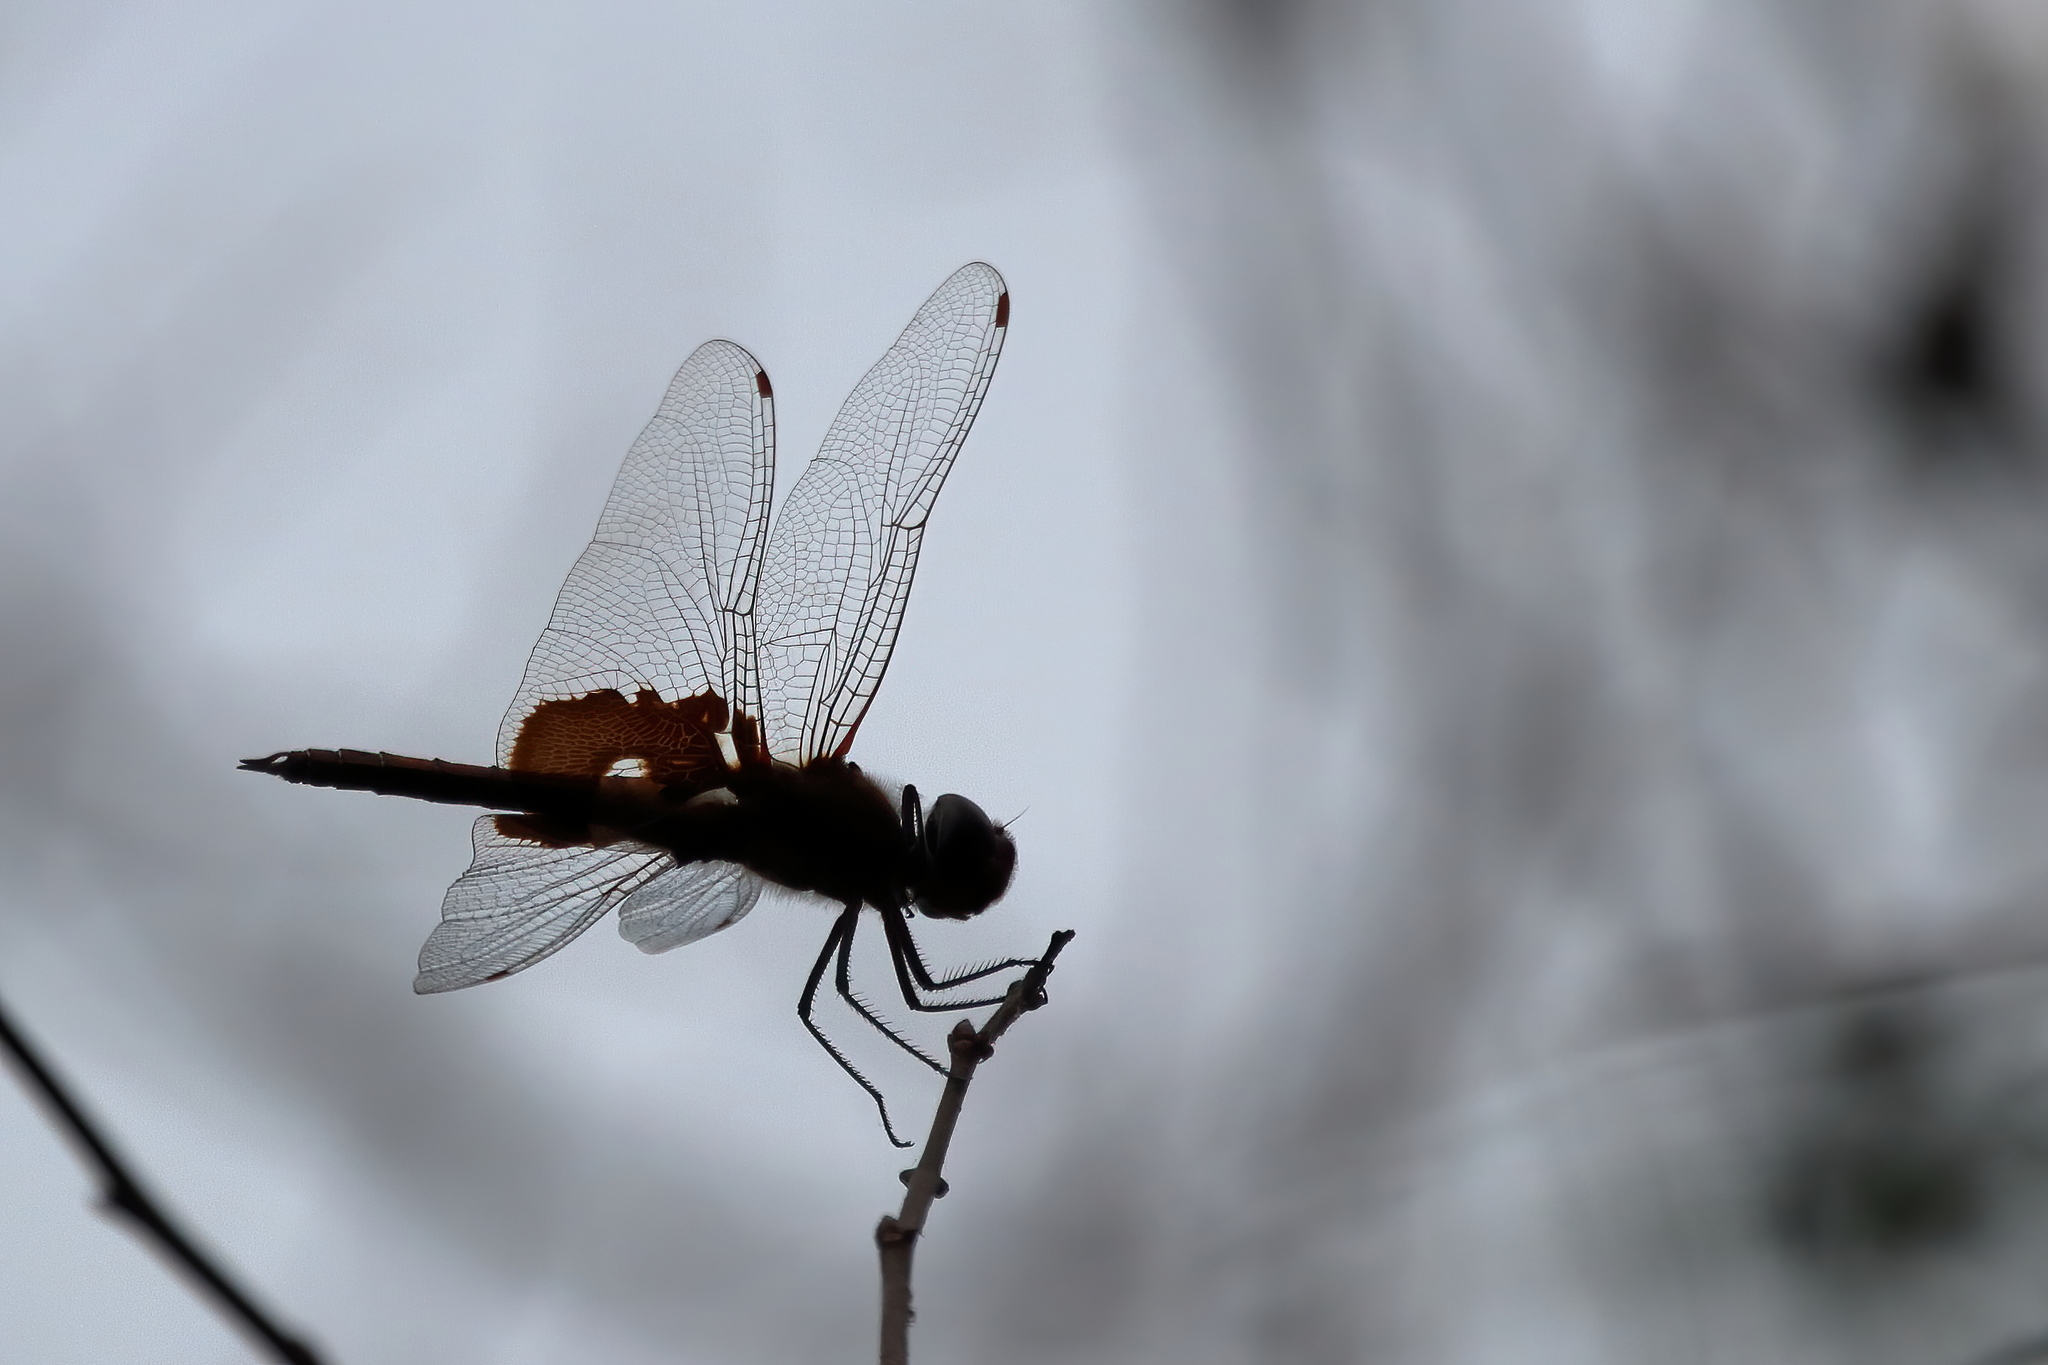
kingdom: Animalia
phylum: Arthropoda
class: Insecta
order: Odonata
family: Libellulidae
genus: Tramea
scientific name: Tramea onusta
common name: Red saddlebags
